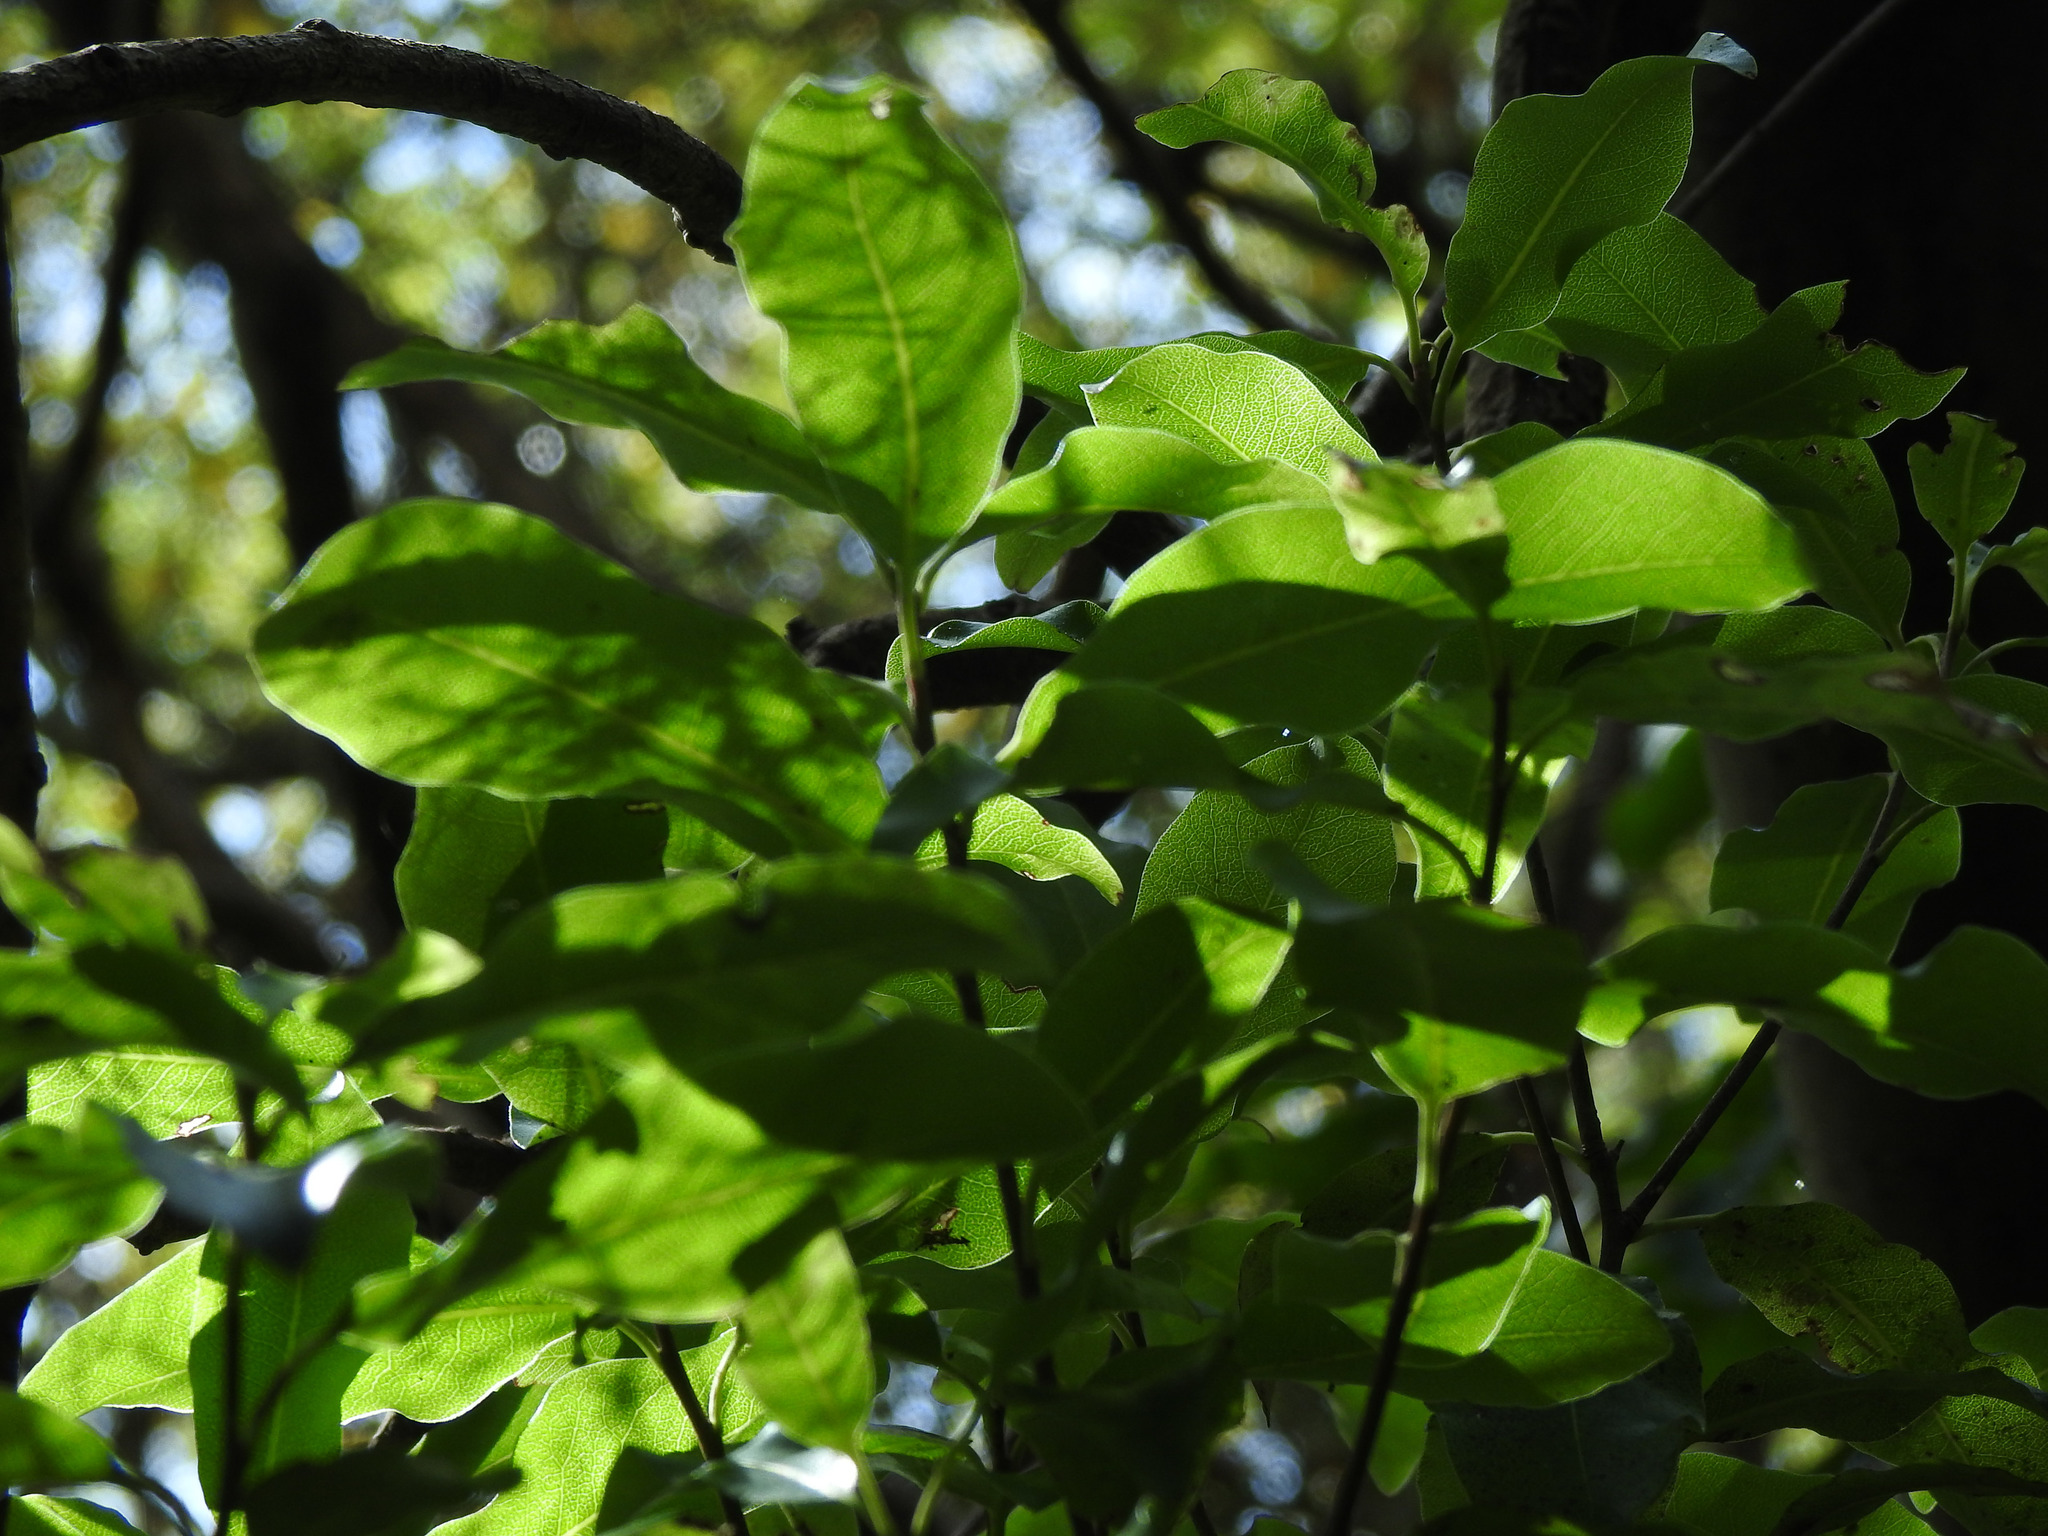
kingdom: Plantae
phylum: Tracheophyta
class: Magnoliopsida
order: Apiales
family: Pittosporaceae
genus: Pittosporum
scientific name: Pittosporum tenuifolium
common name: Kohuhu
